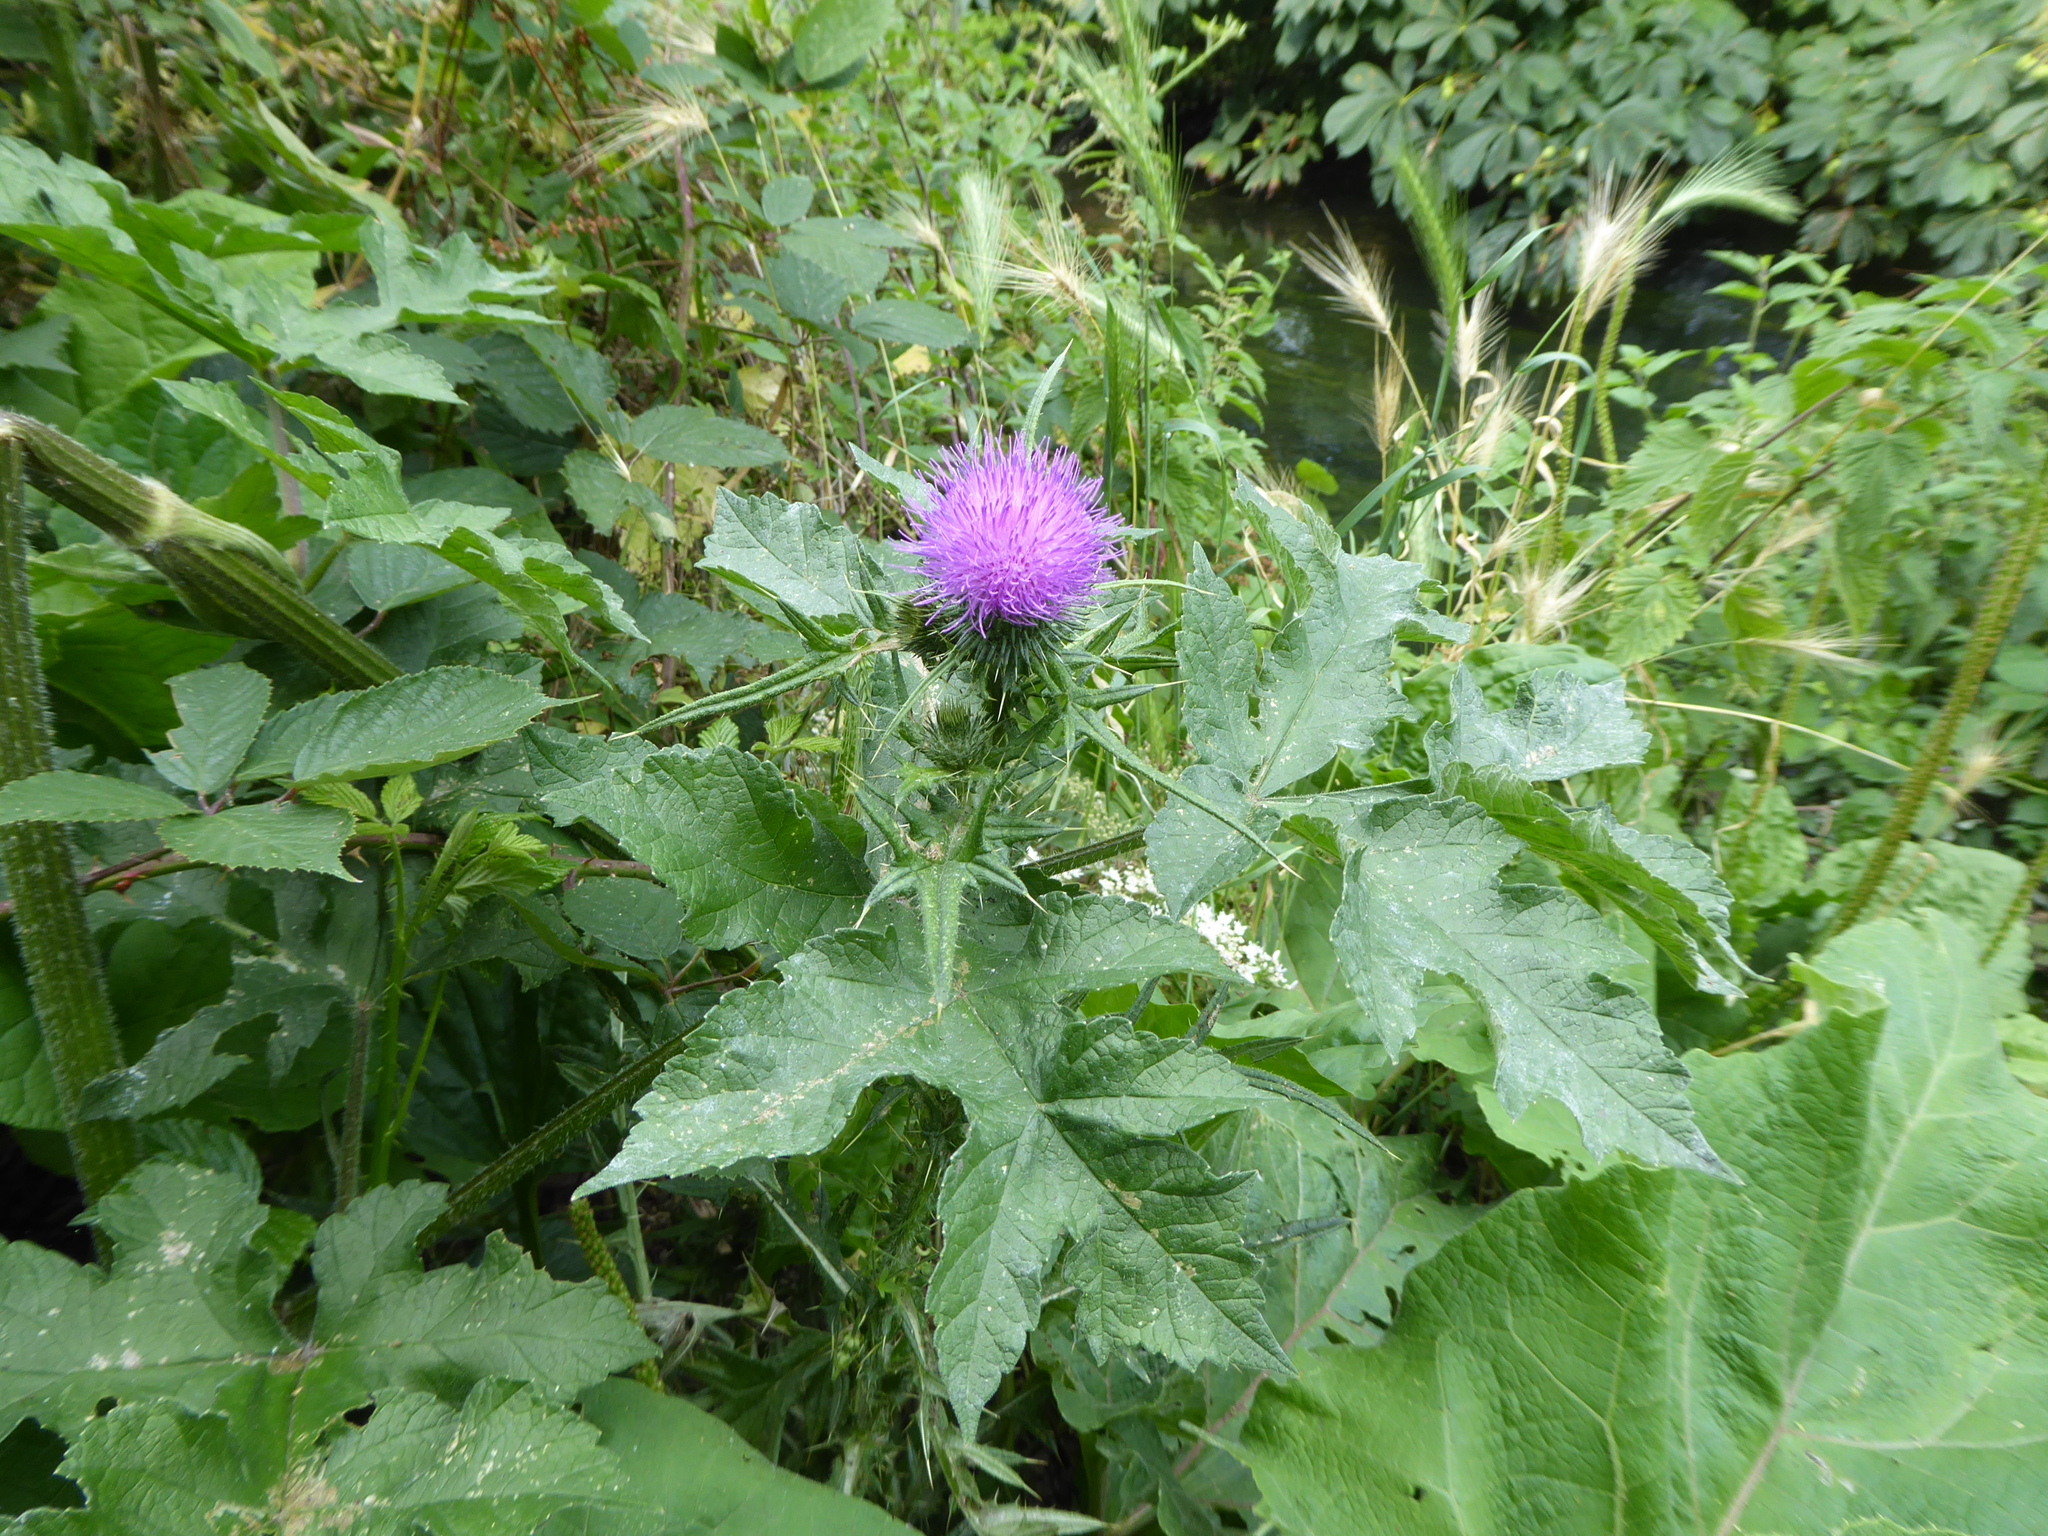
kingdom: Plantae
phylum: Tracheophyta
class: Magnoliopsida
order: Asterales
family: Asteraceae
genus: Cirsium
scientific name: Cirsium vulgare
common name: Bull thistle
